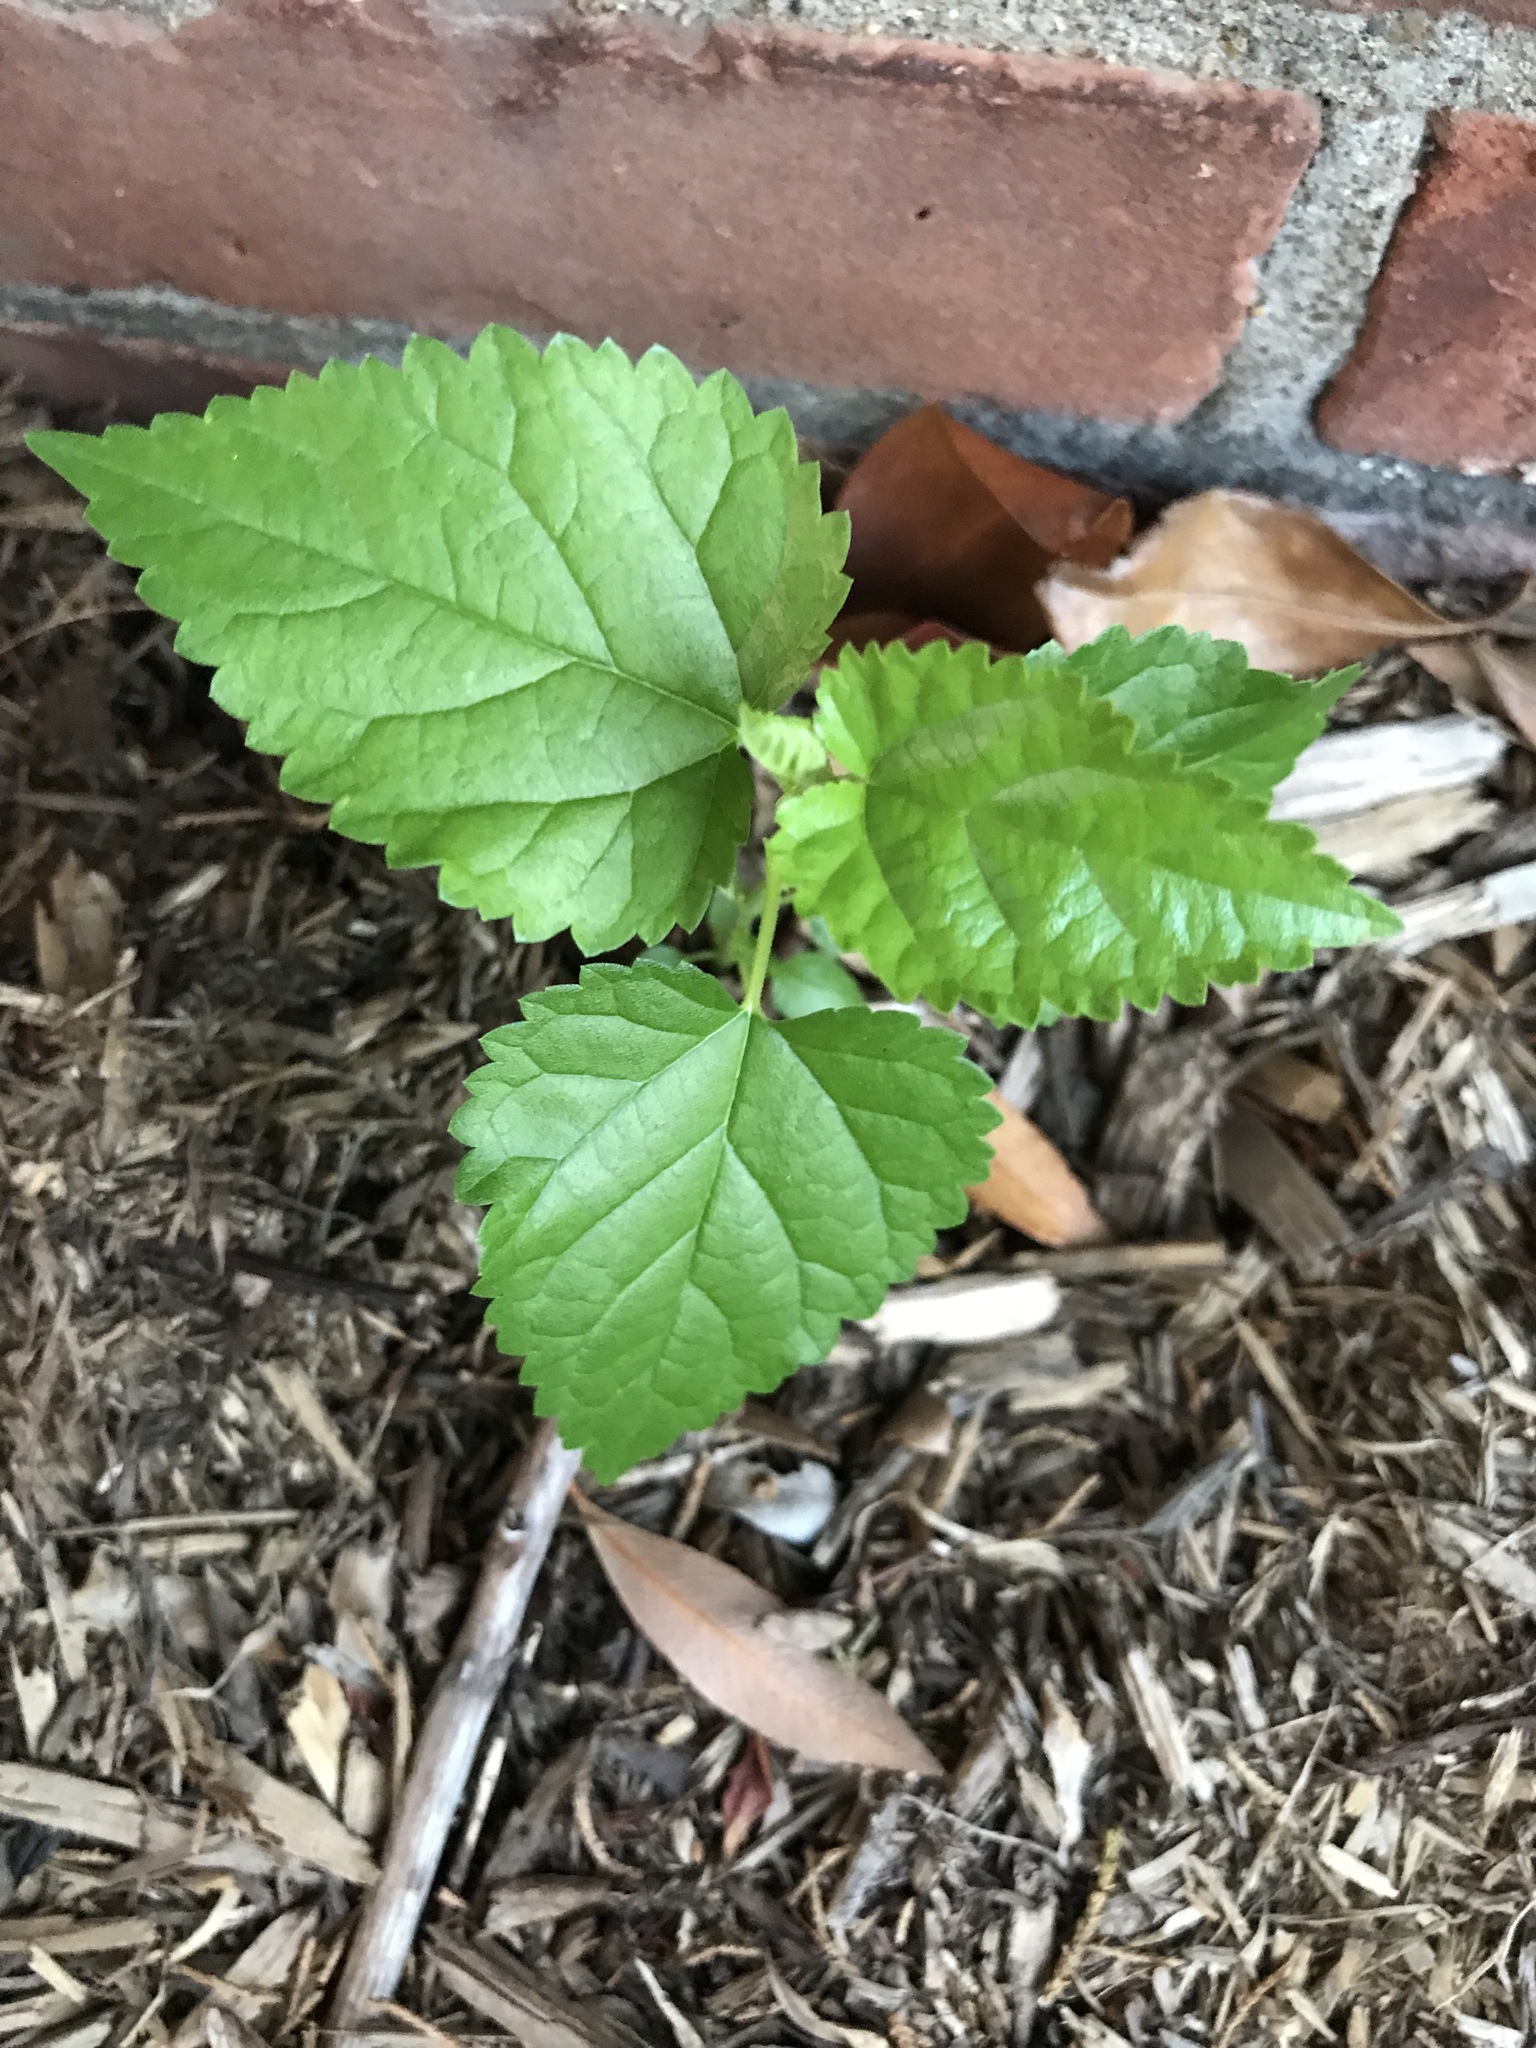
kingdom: Plantae
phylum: Tracheophyta
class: Magnoliopsida
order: Rosales
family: Moraceae
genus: Morus
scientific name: Morus alba
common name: White mulberry
